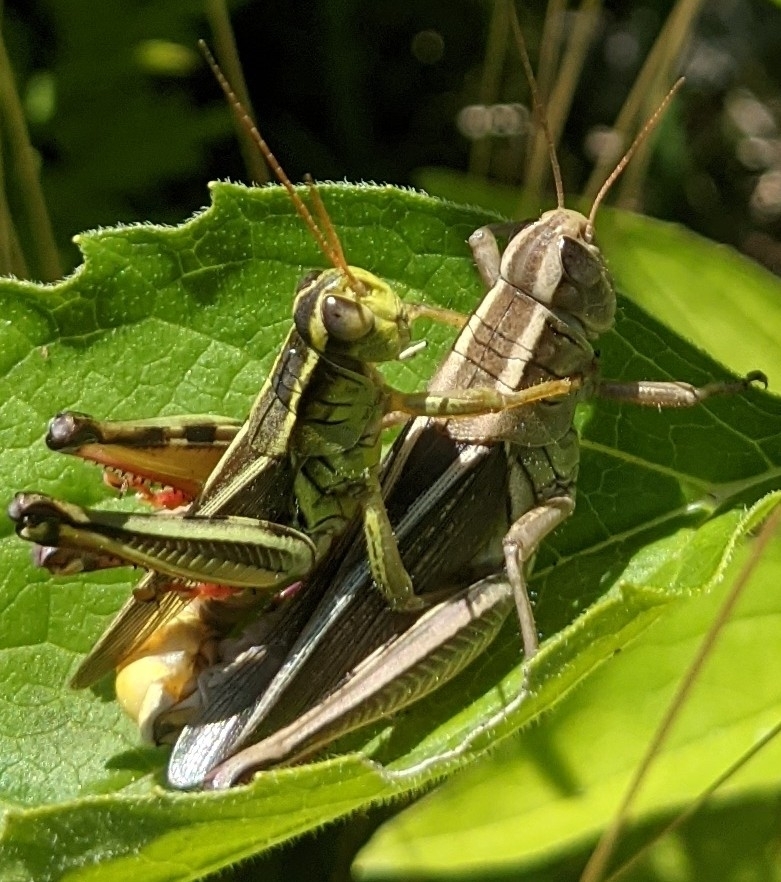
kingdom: Animalia
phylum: Arthropoda
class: Insecta
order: Orthoptera
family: Acrididae
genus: Melanoplus
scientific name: Melanoplus bivittatus
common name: Two-striped grasshopper
